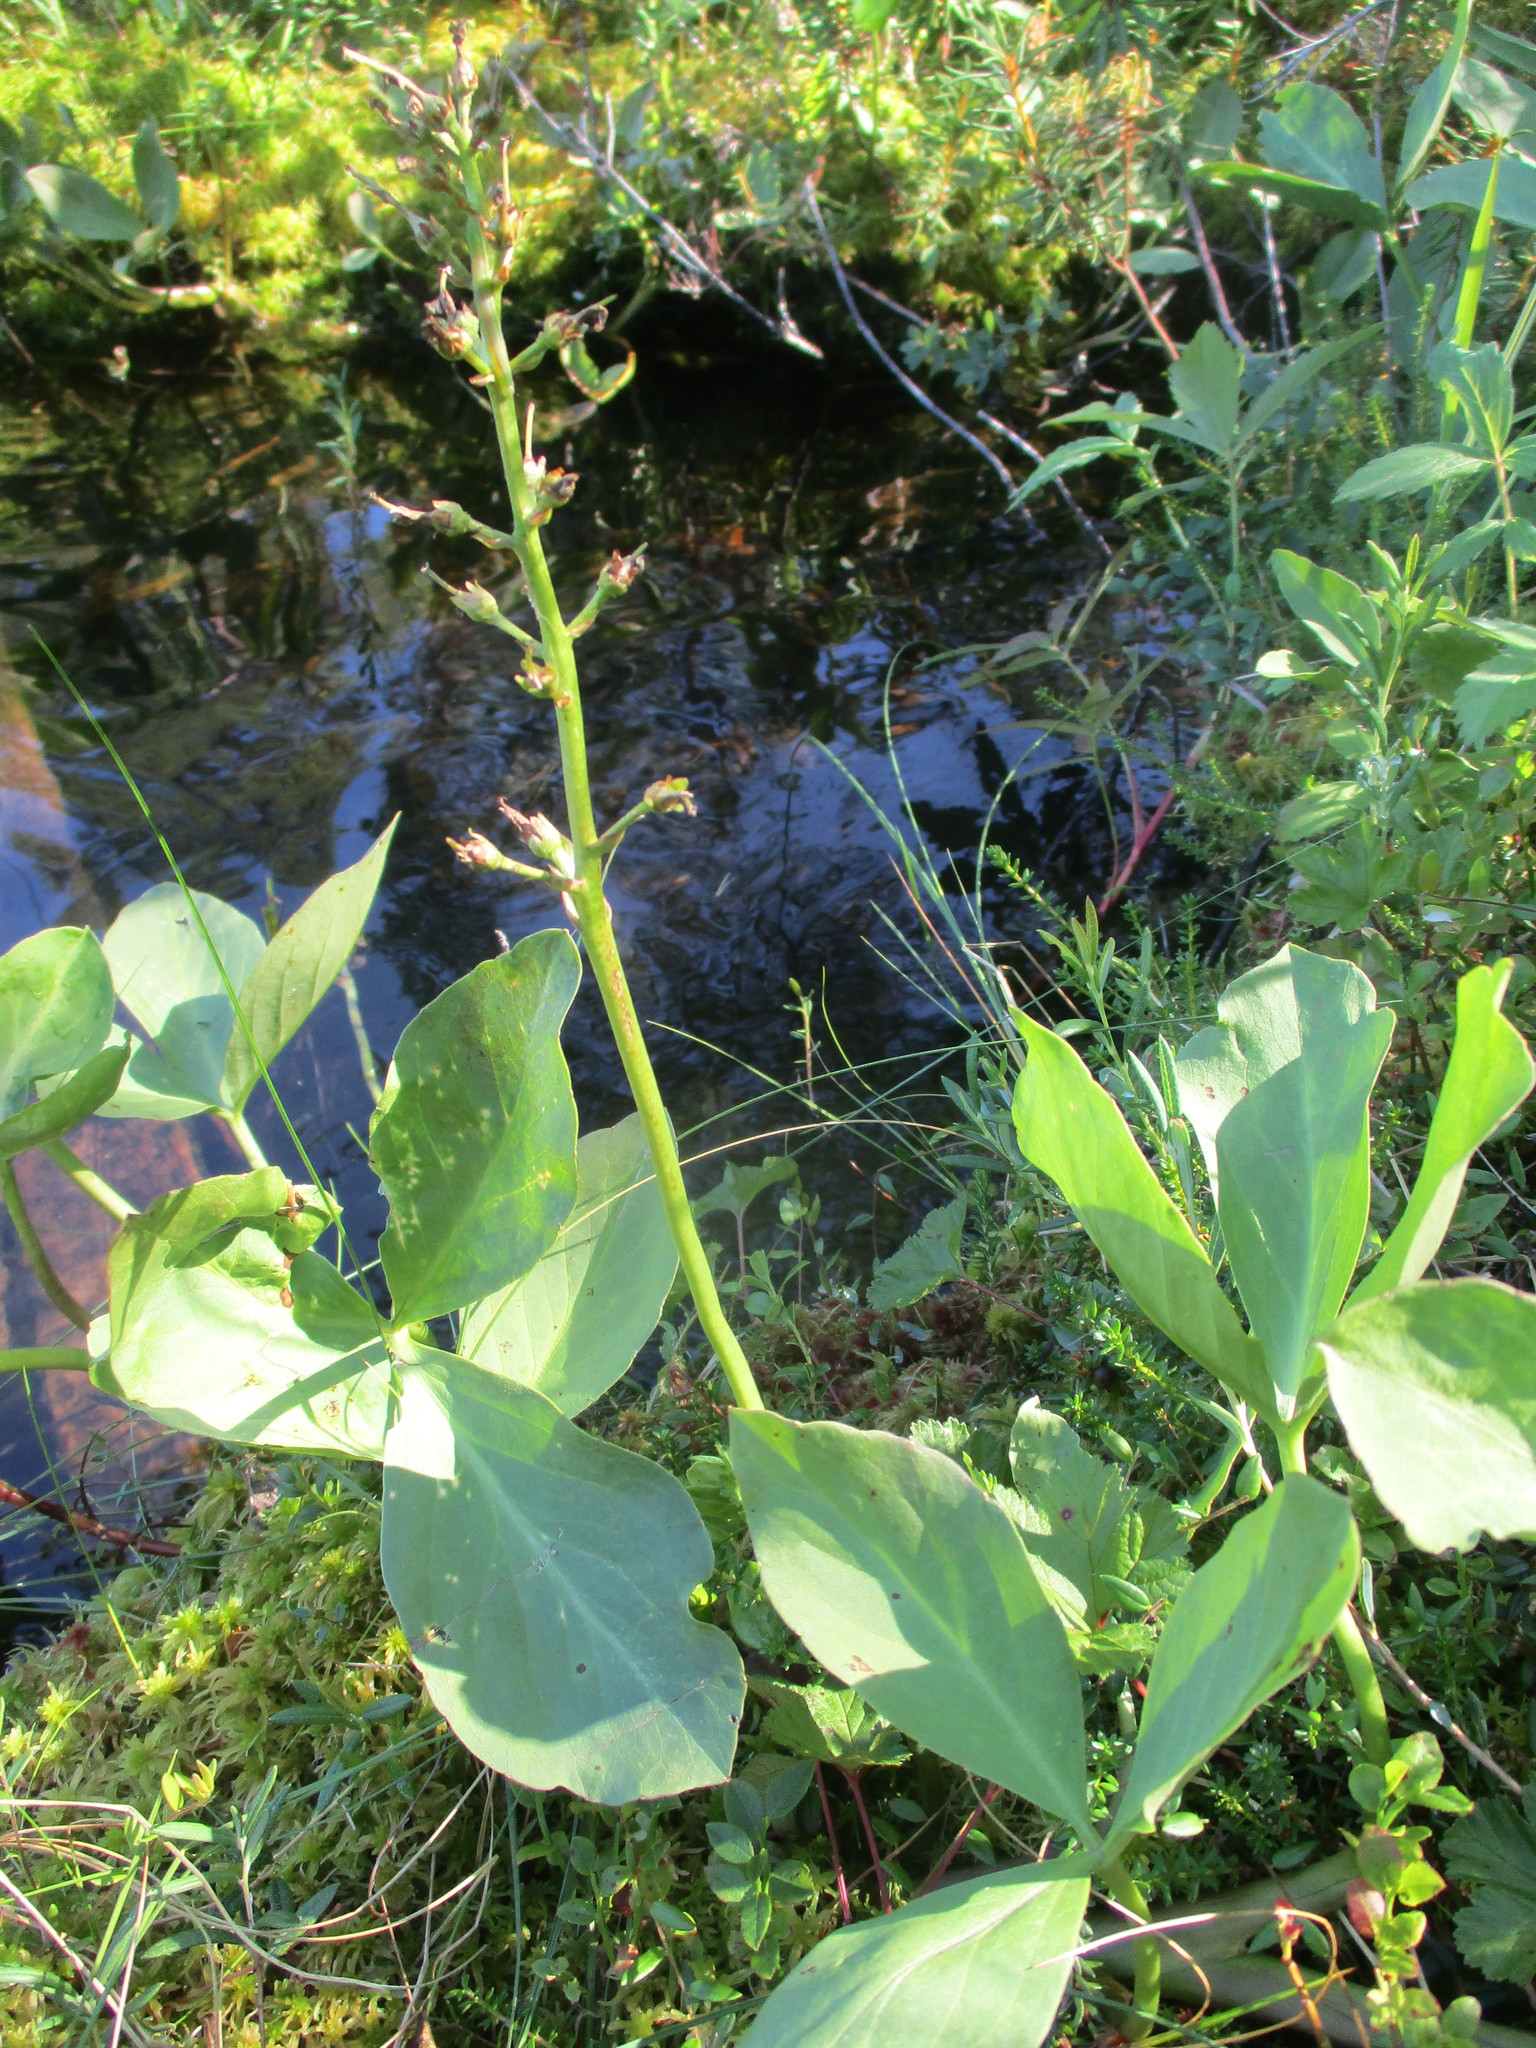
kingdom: Plantae
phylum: Tracheophyta
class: Magnoliopsida
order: Asterales
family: Menyanthaceae
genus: Menyanthes
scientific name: Menyanthes trifoliata
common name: Bogbean
